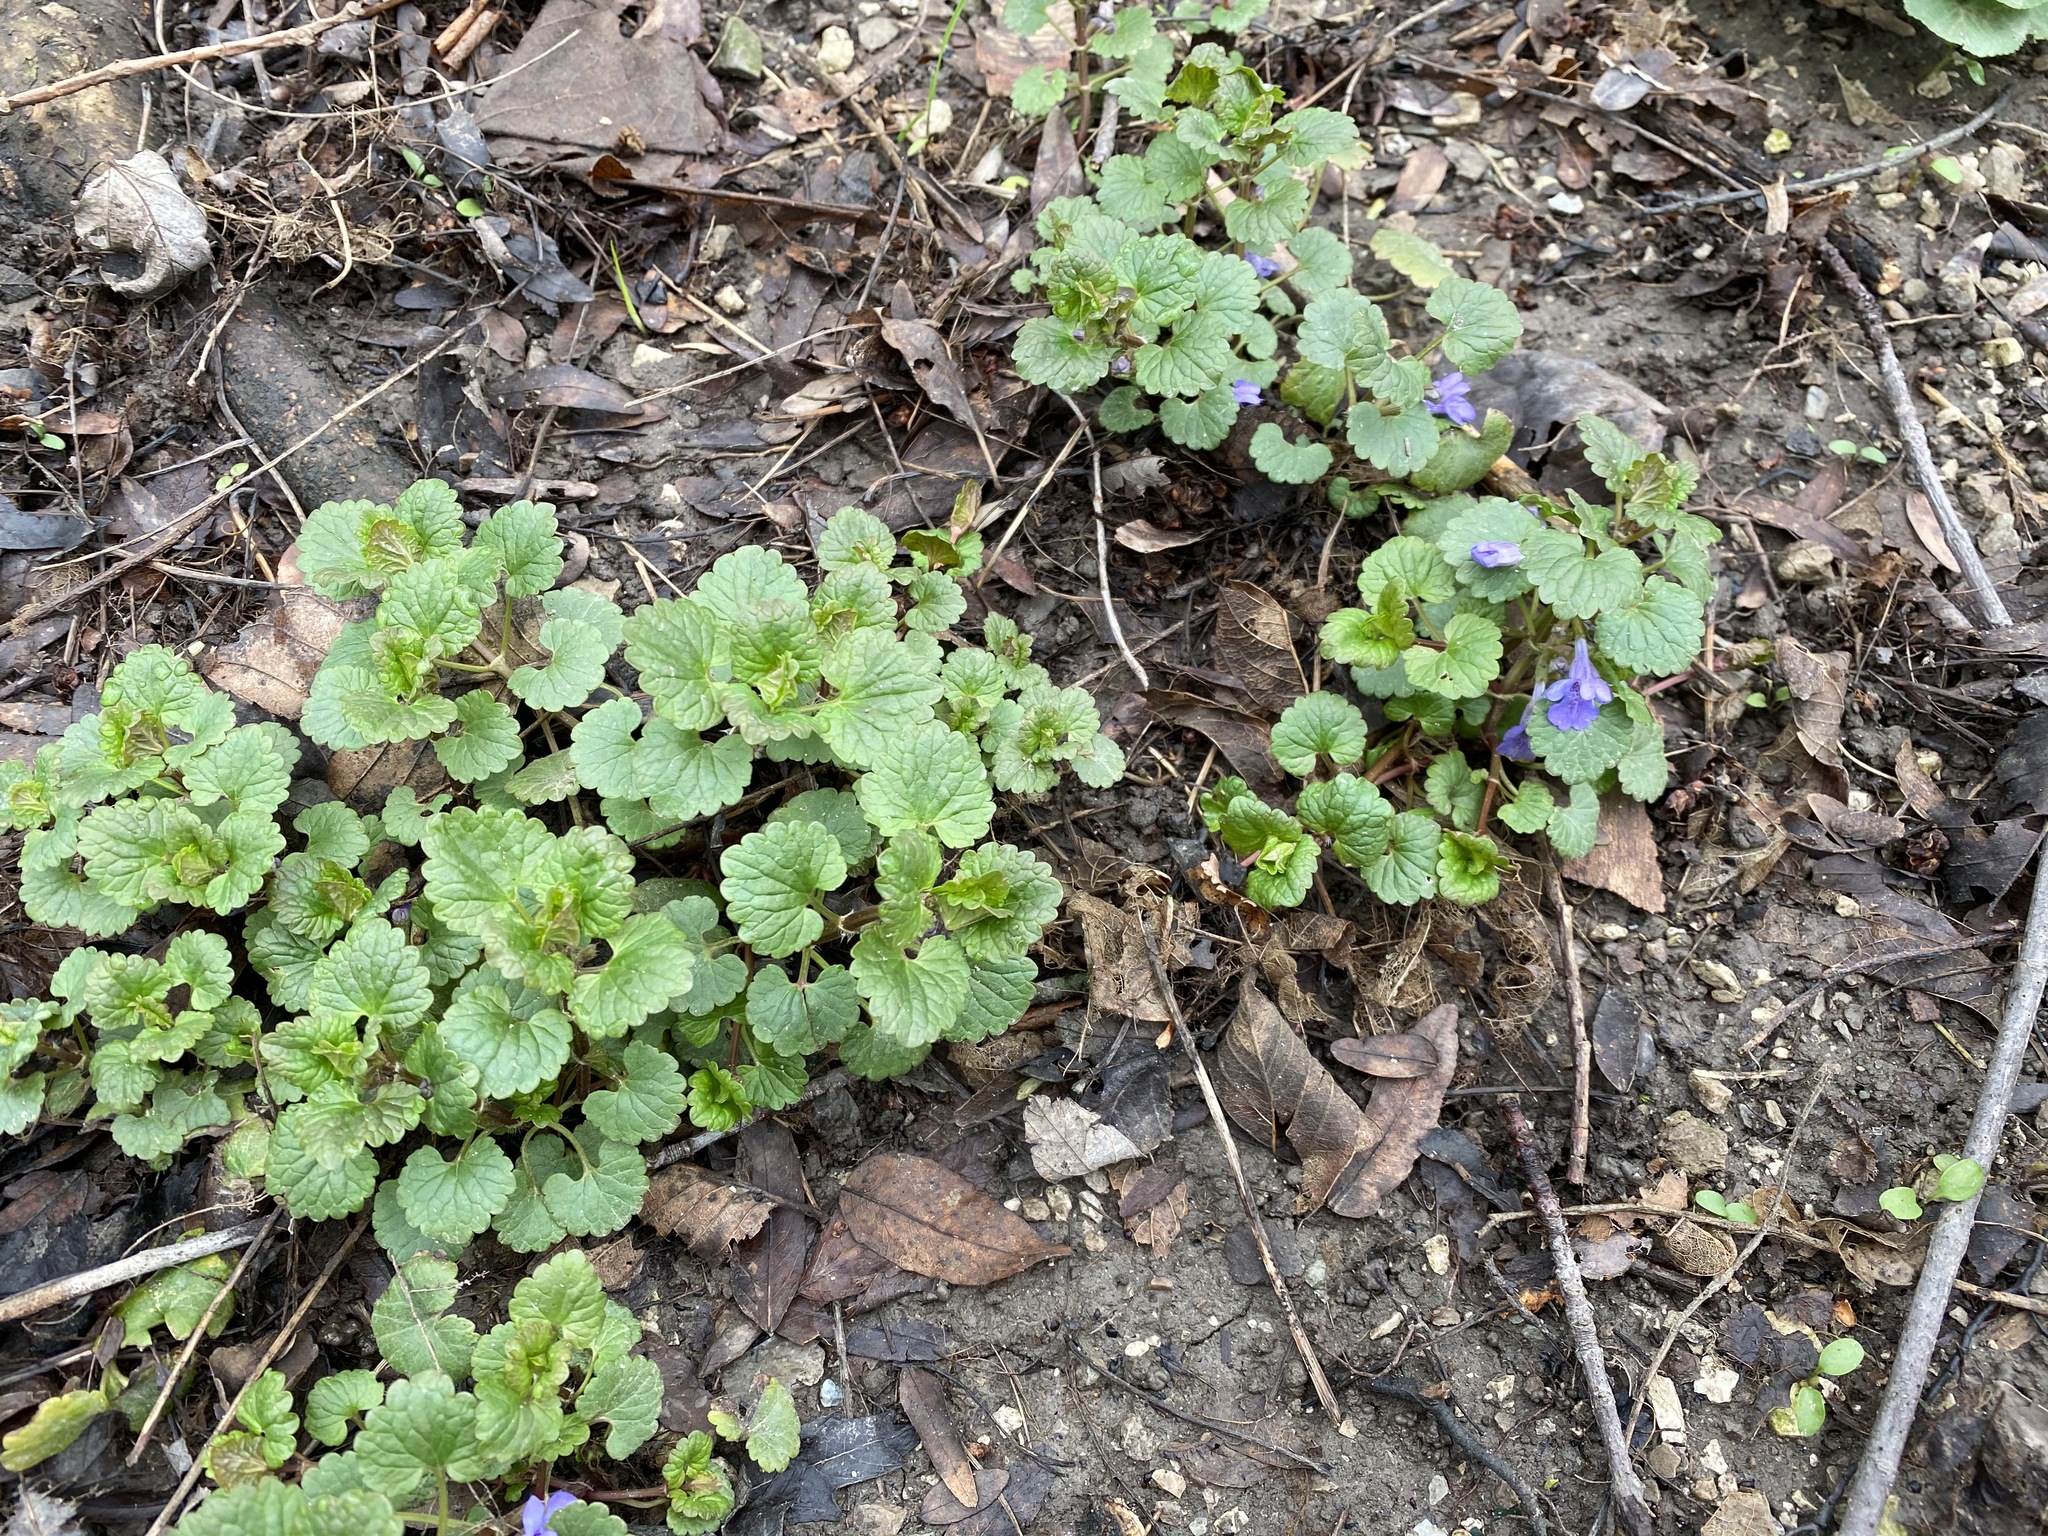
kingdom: Plantae
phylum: Tracheophyta
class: Magnoliopsida
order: Lamiales
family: Lamiaceae
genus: Glechoma
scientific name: Glechoma hederacea
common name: Ground ivy
